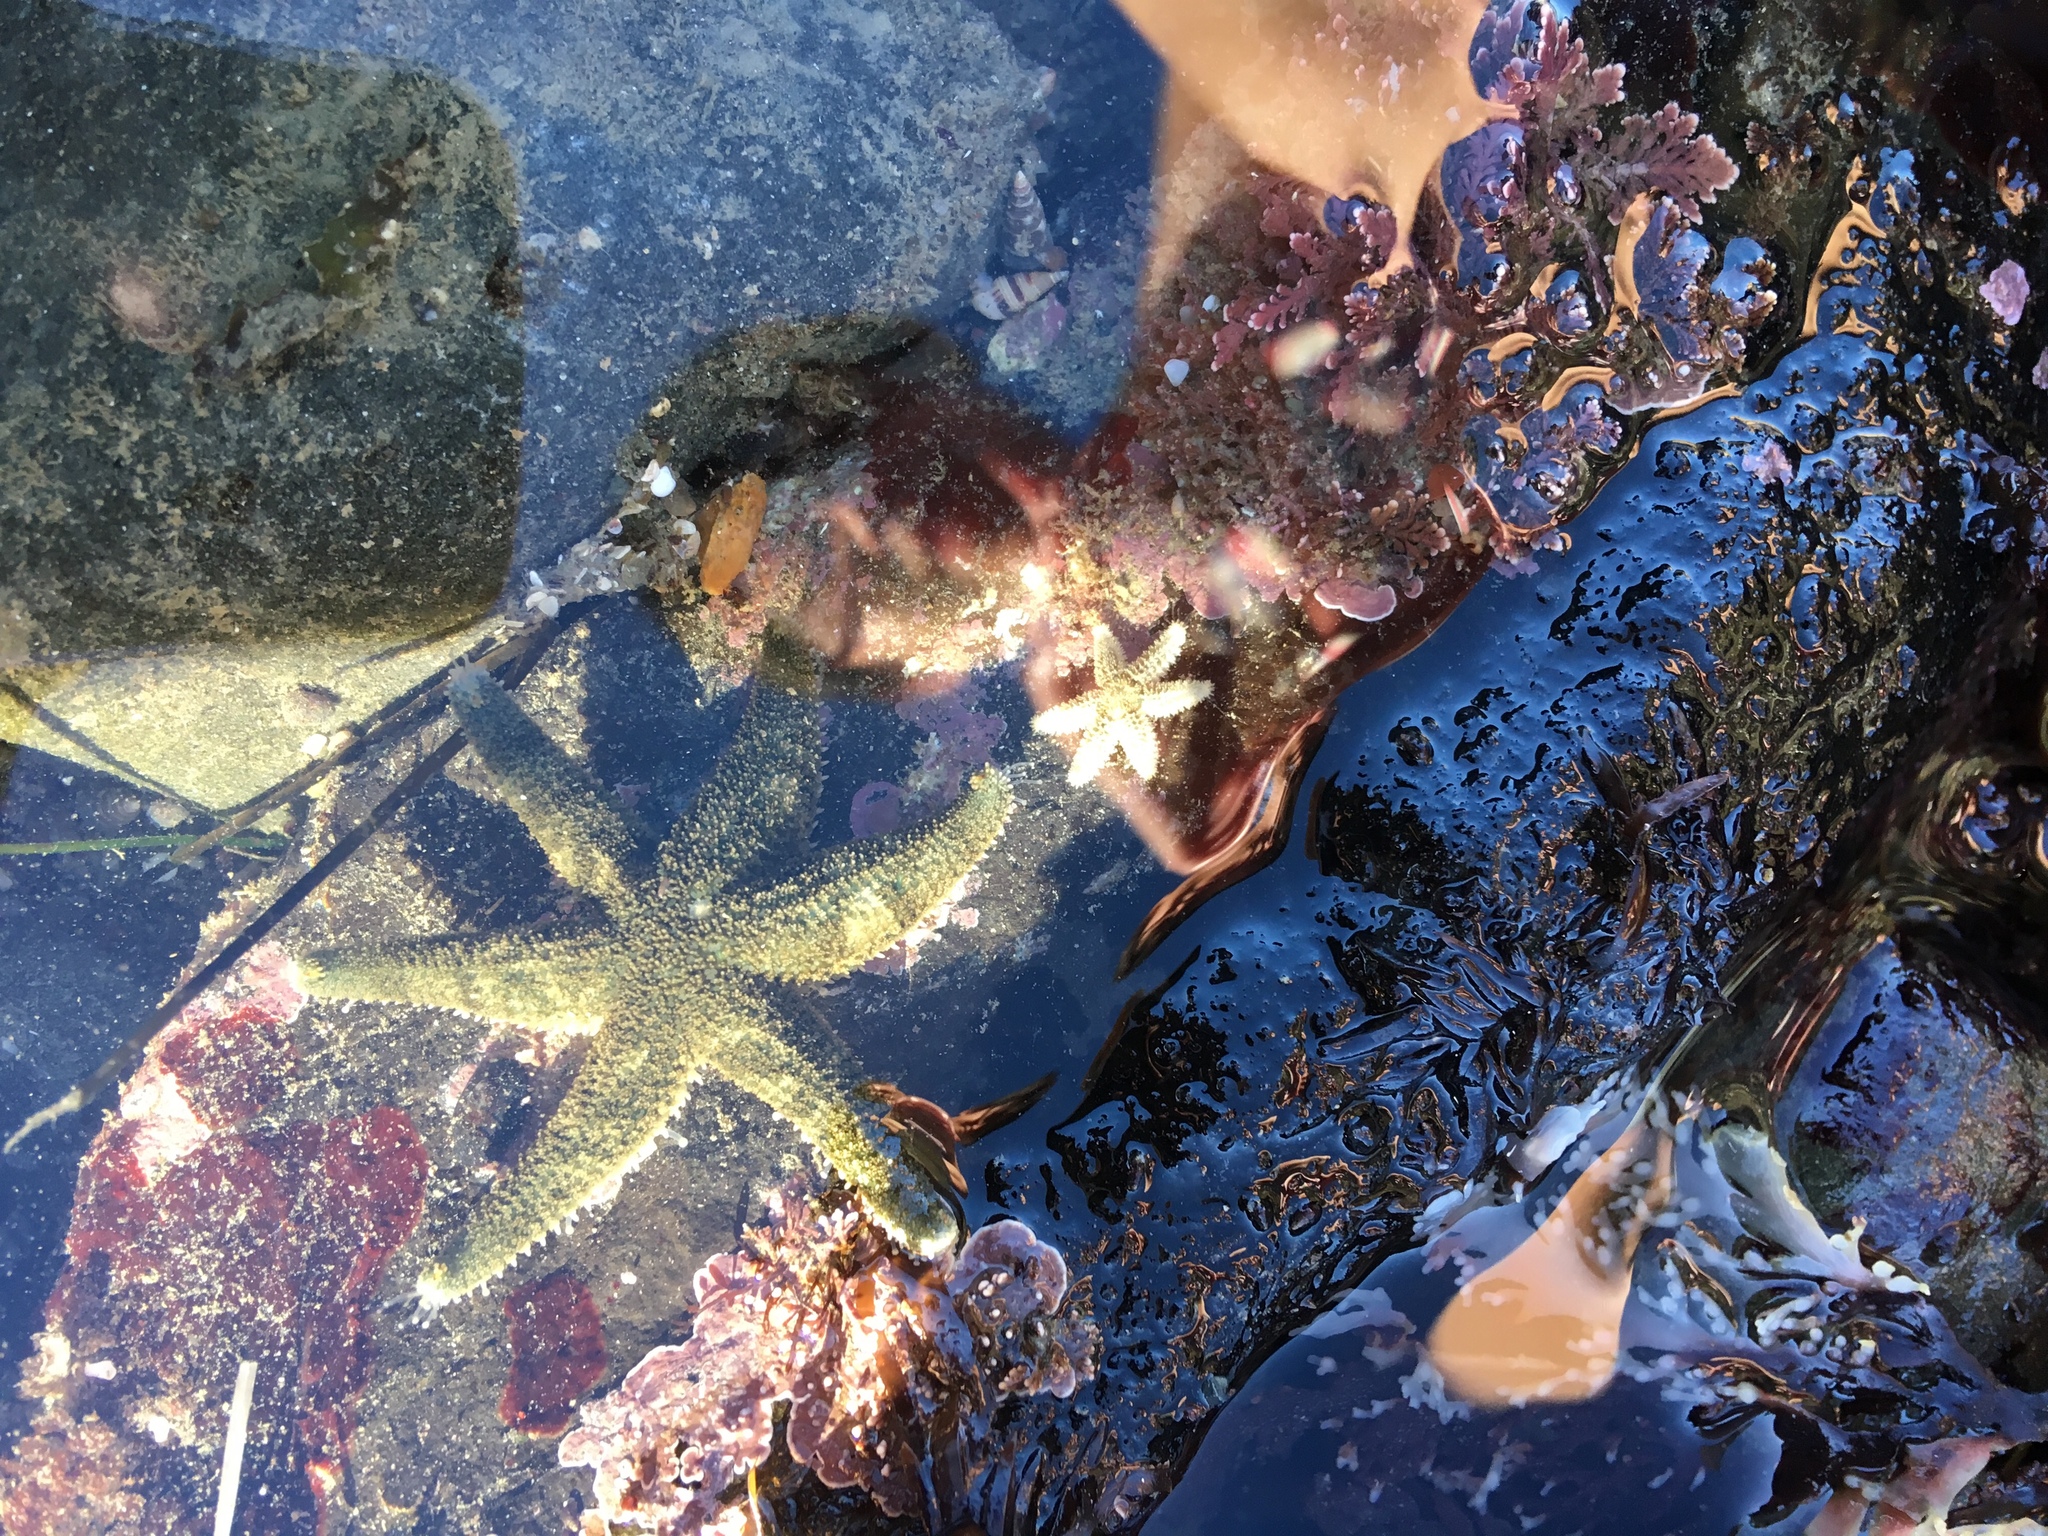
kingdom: Animalia
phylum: Echinodermata
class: Asteroidea
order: Forcipulatida
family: Asteriidae
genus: Leptasterias
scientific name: Leptasterias hexactis
